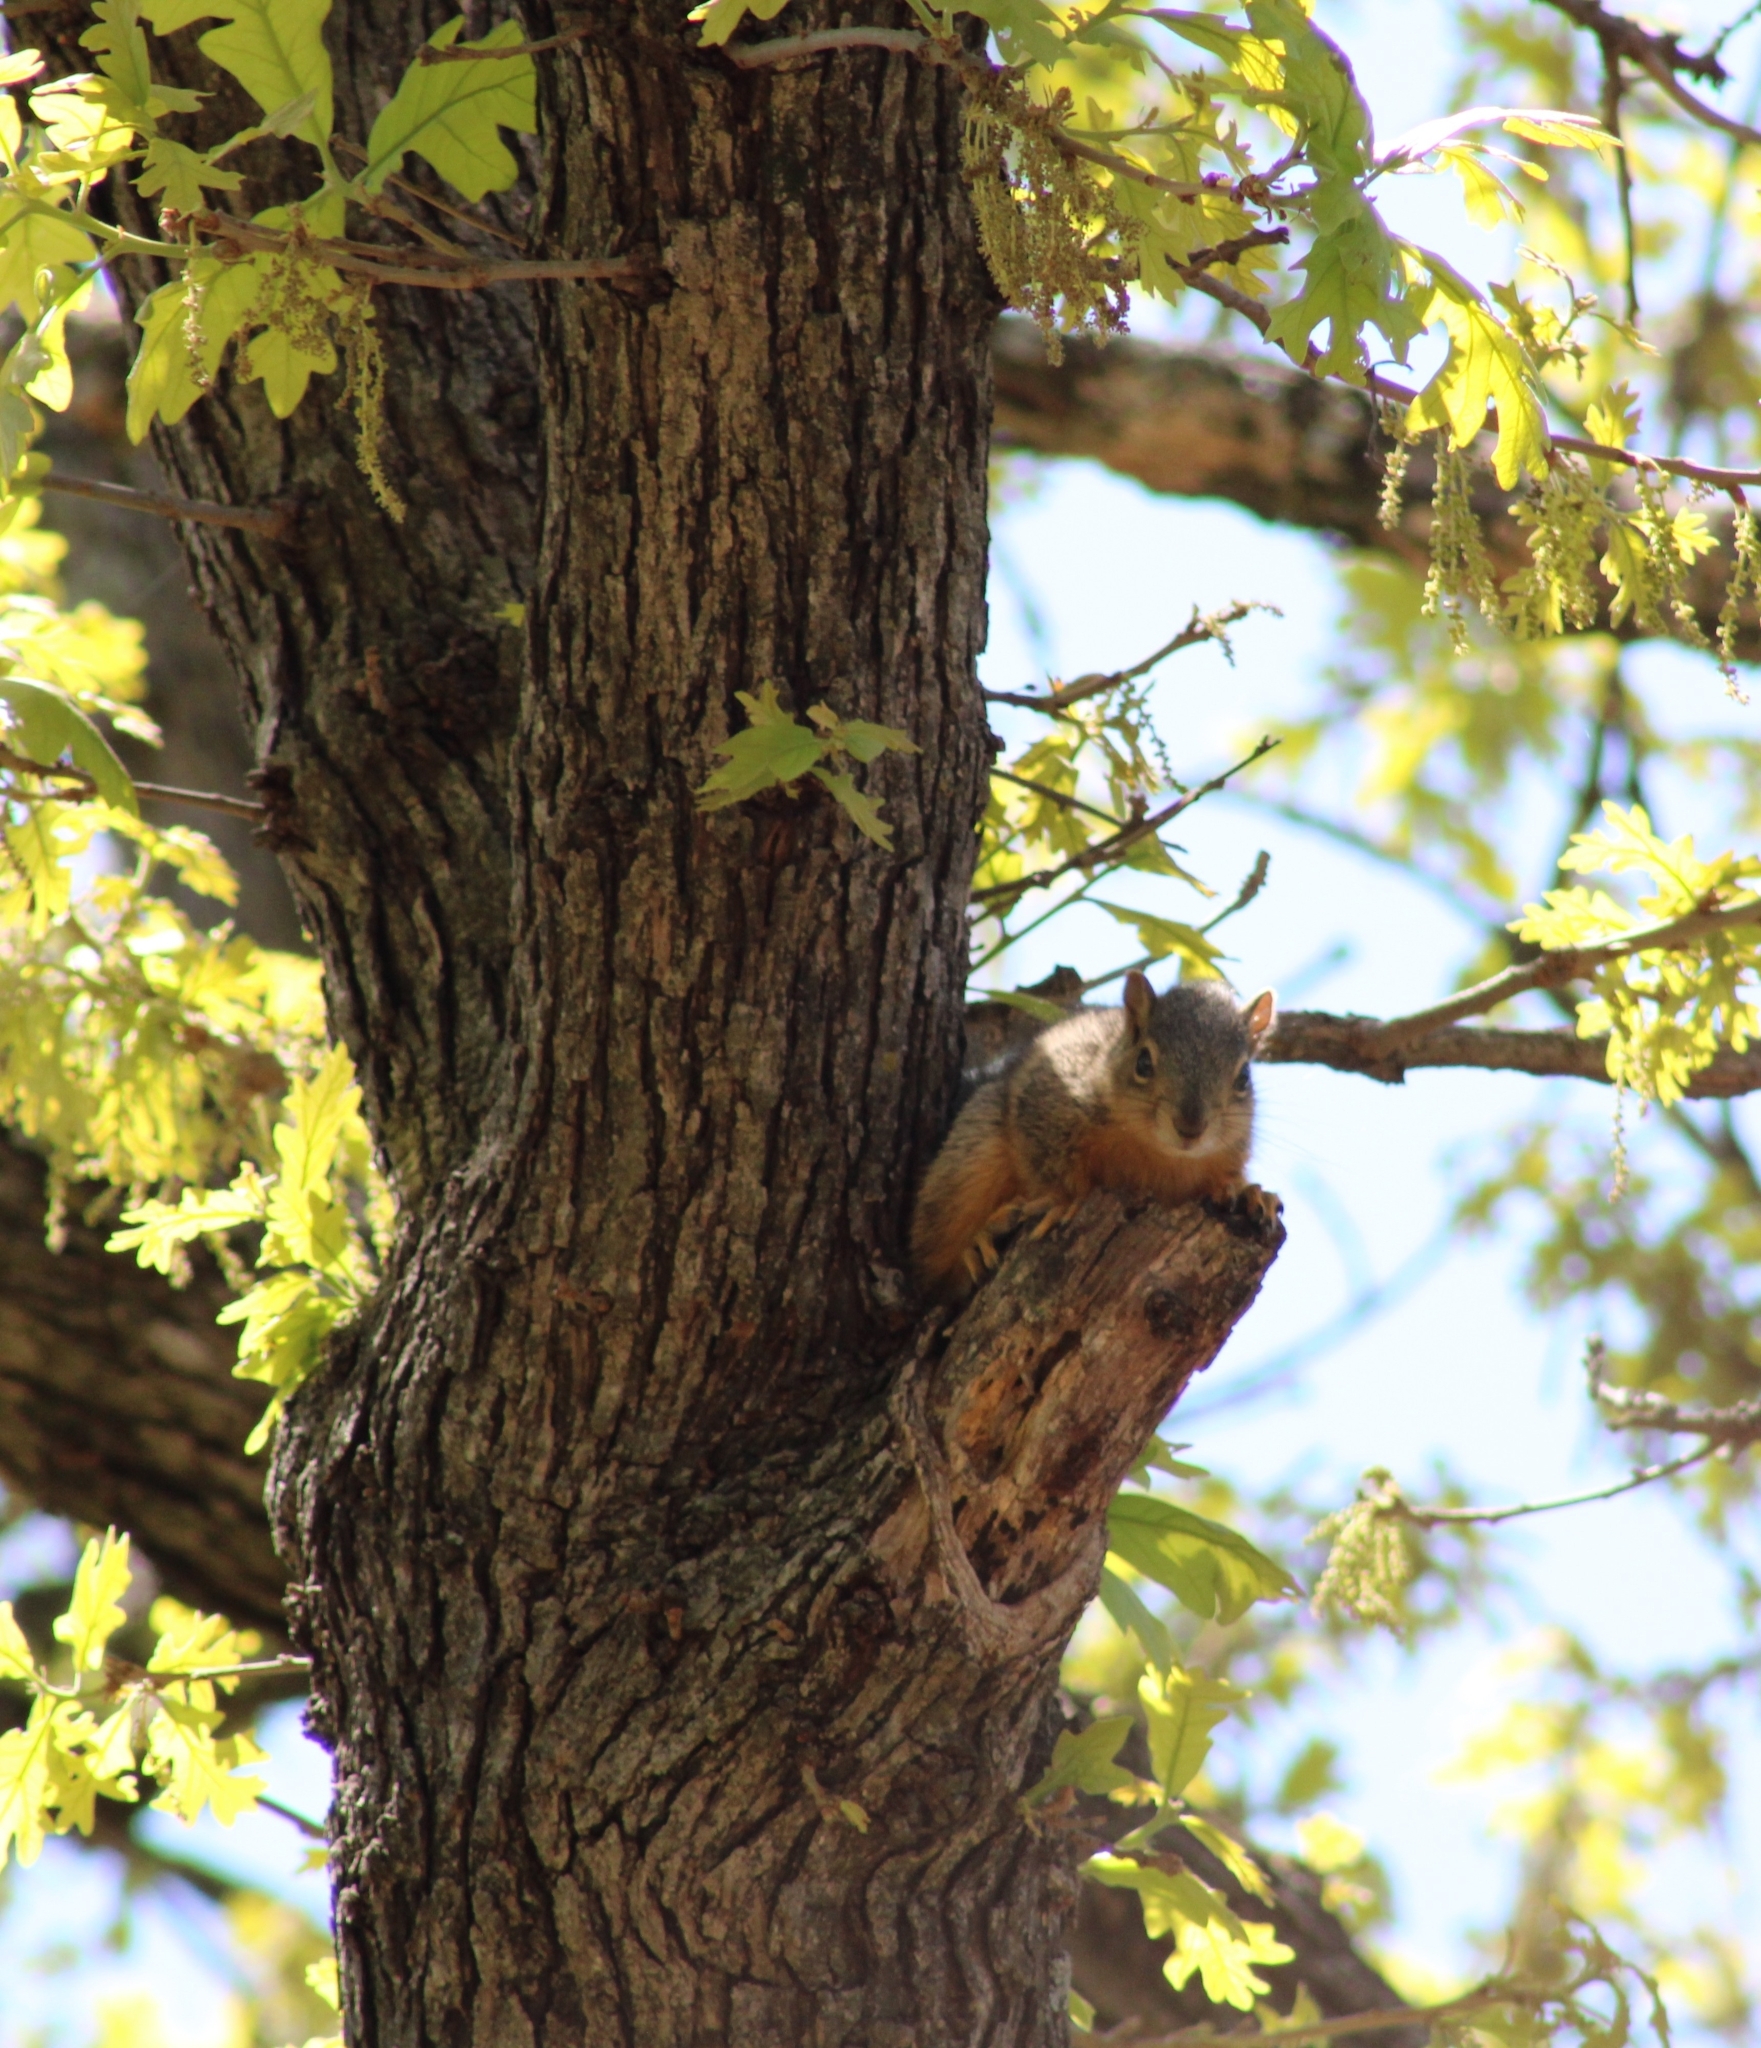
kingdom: Animalia
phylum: Chordata
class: Mammalia
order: Rodentia
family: Sciuridae
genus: Sciurus
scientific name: Sciurus niger
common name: Fox squirrel
